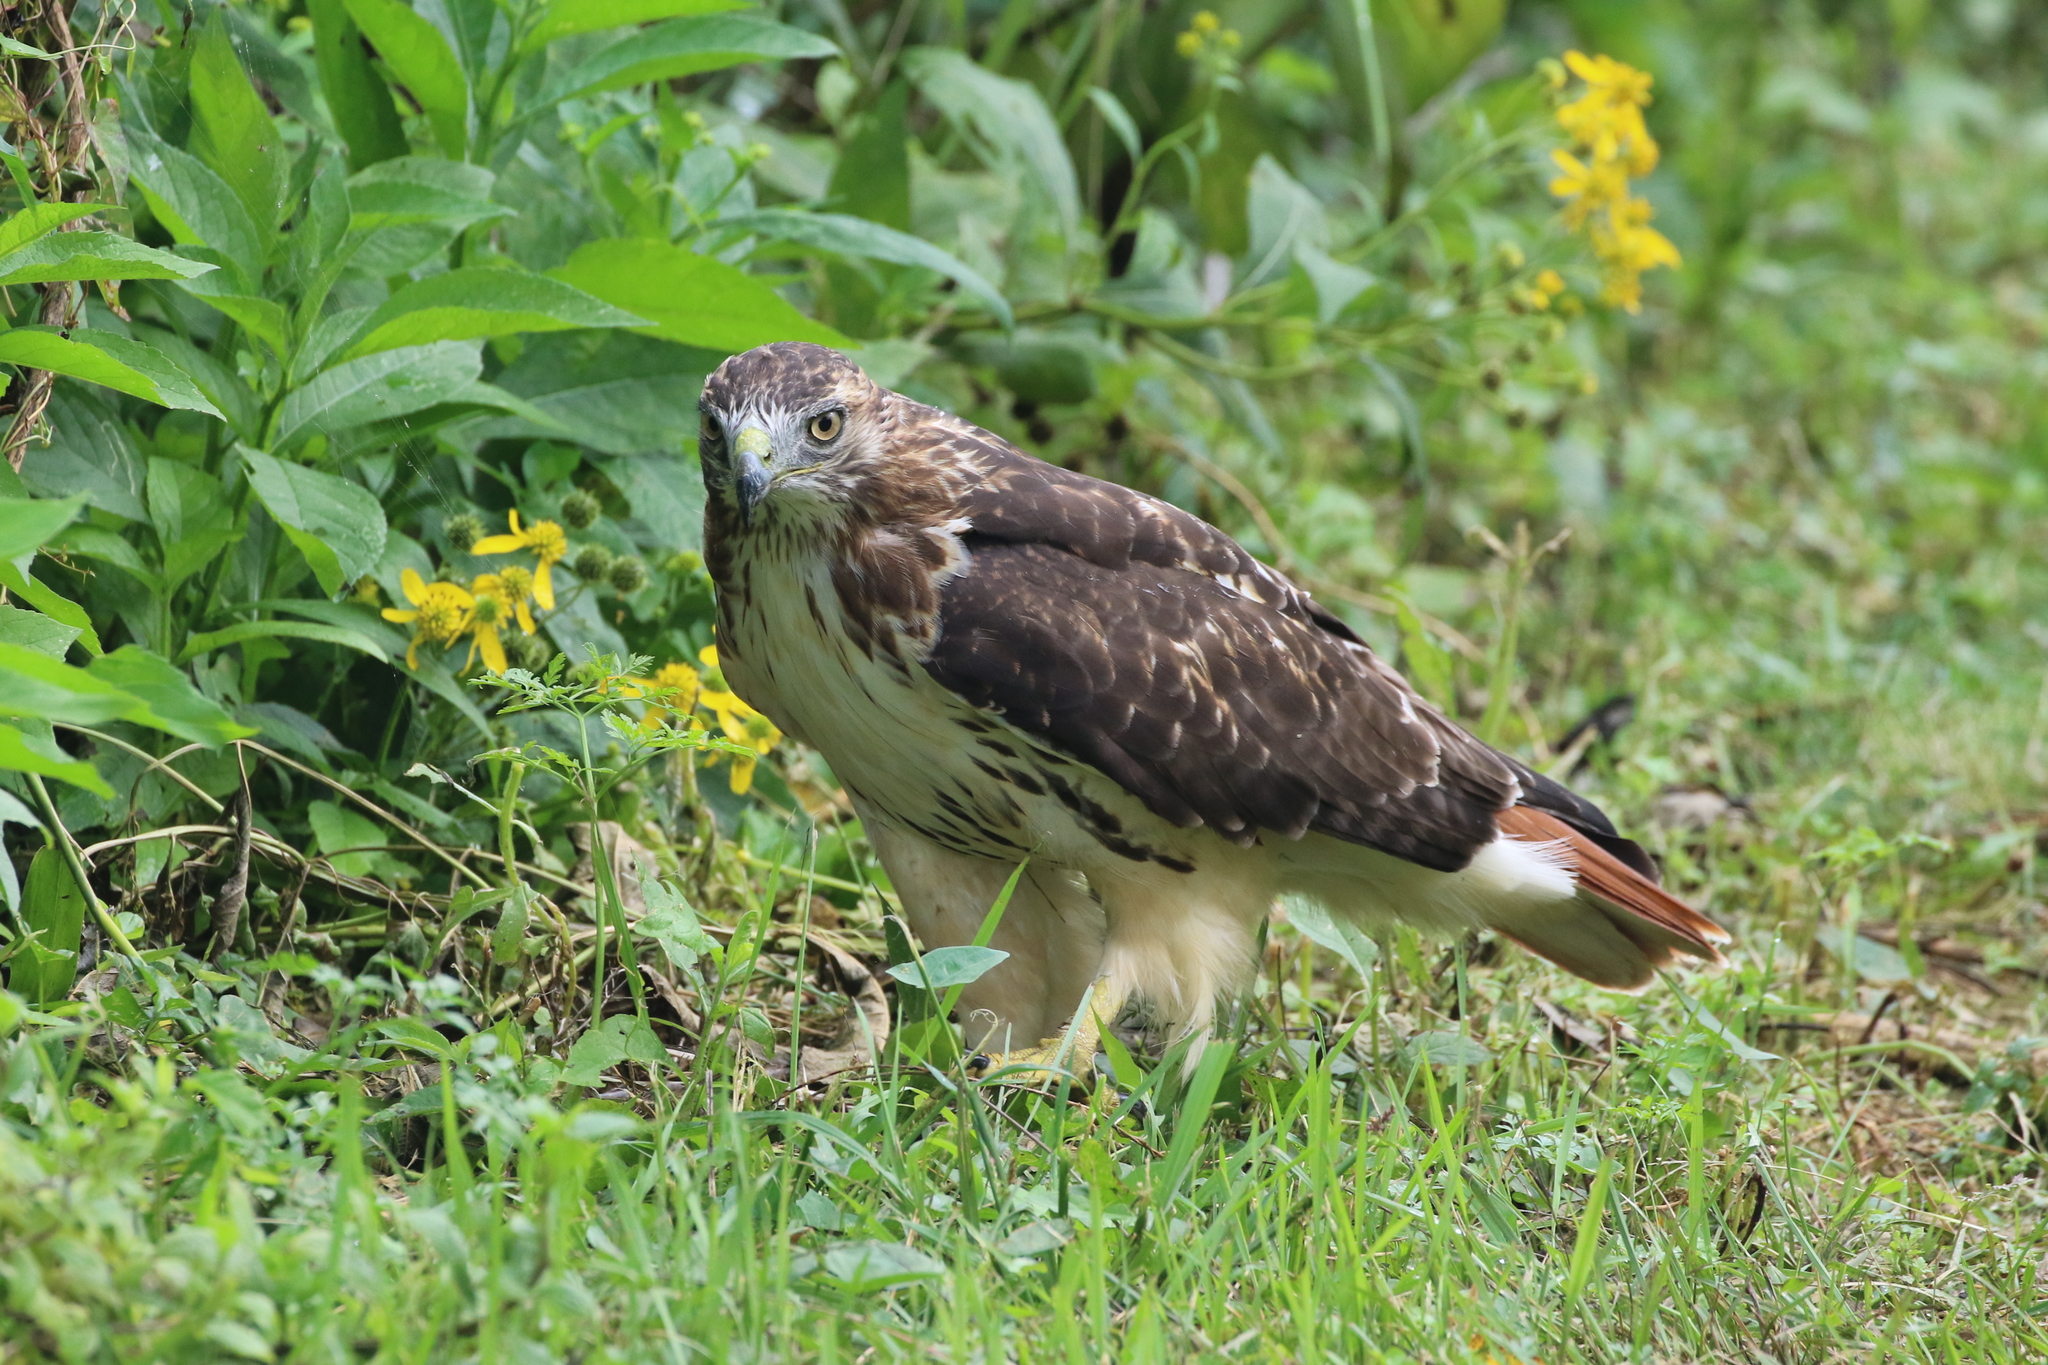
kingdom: Animalia
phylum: Chordata
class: Aves
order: Accipitriformes
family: Accipitridae
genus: Buteo
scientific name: Buteo jamaicensis
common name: Red-tailed hawk
